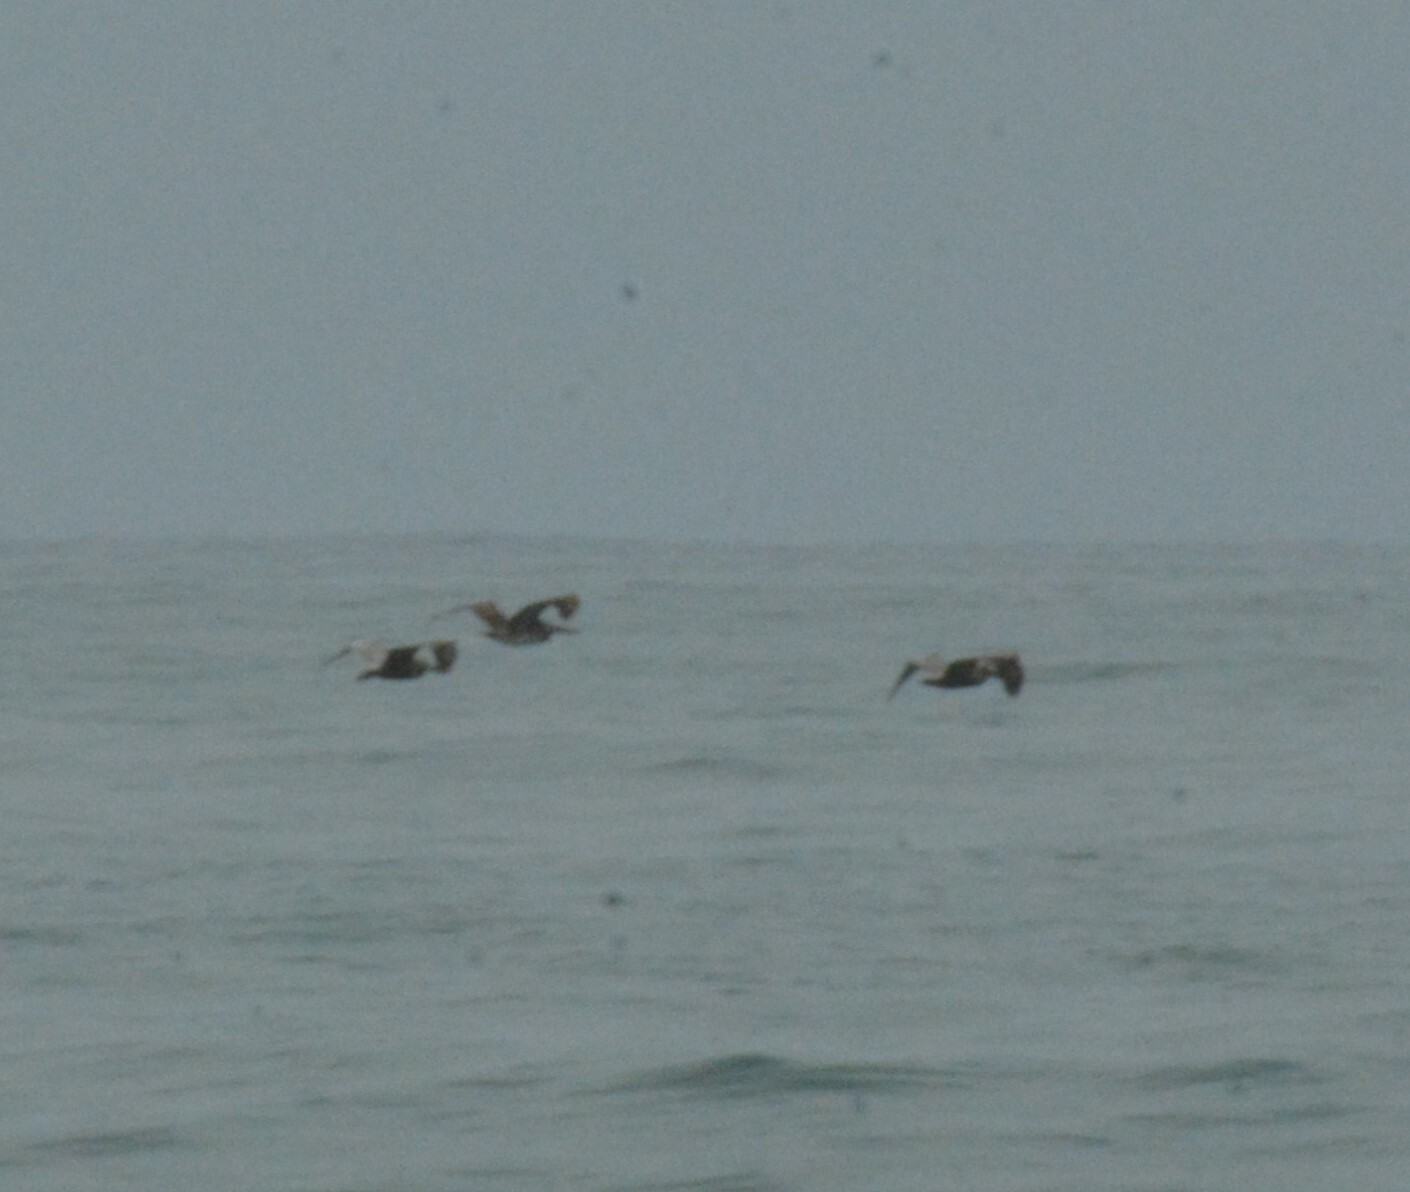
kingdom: Animalia
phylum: Chordata
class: Aves
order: Pelecaniformes
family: Pelecanidae
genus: Pelecanus
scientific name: Pelecanus occidentalis
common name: Brown pelican
